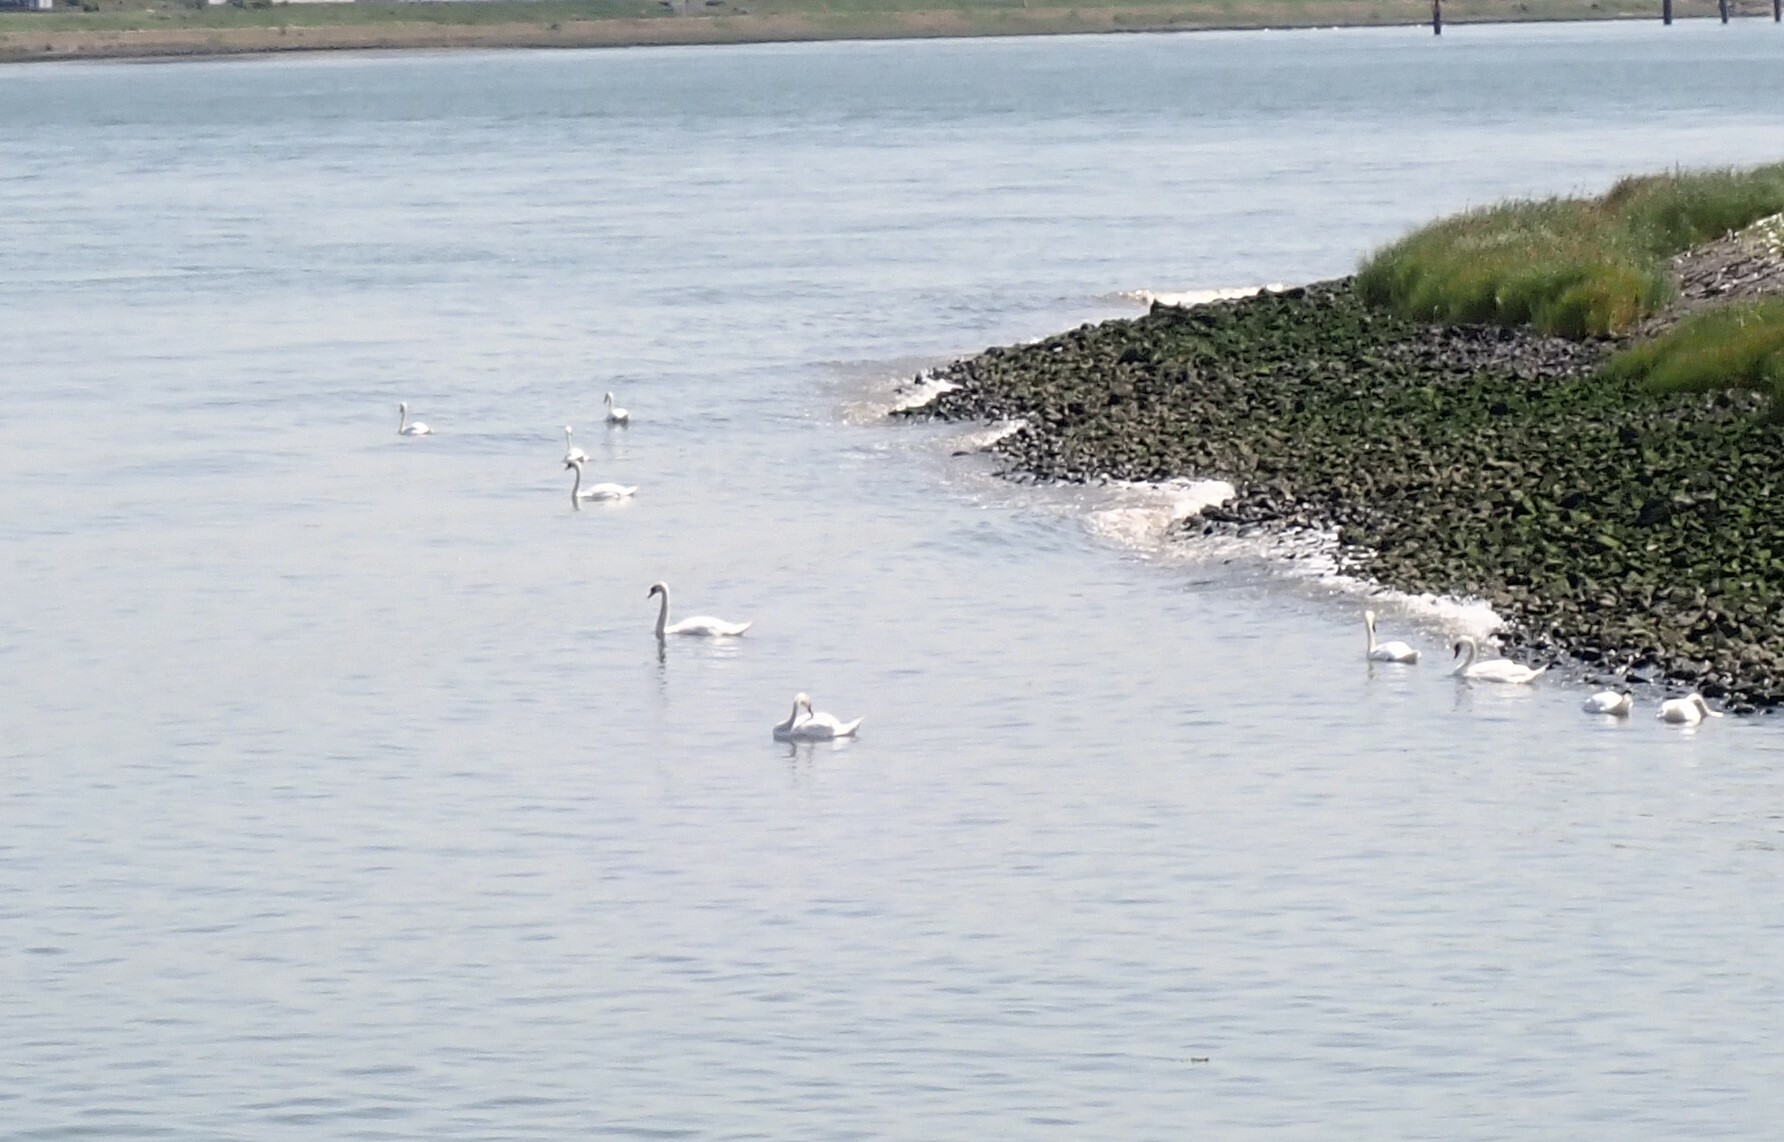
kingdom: Animalia
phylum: Chordata
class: Aves
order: Anseriformes
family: Anatidae
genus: Cygnus
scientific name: Cygnus olor
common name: Mute swan
